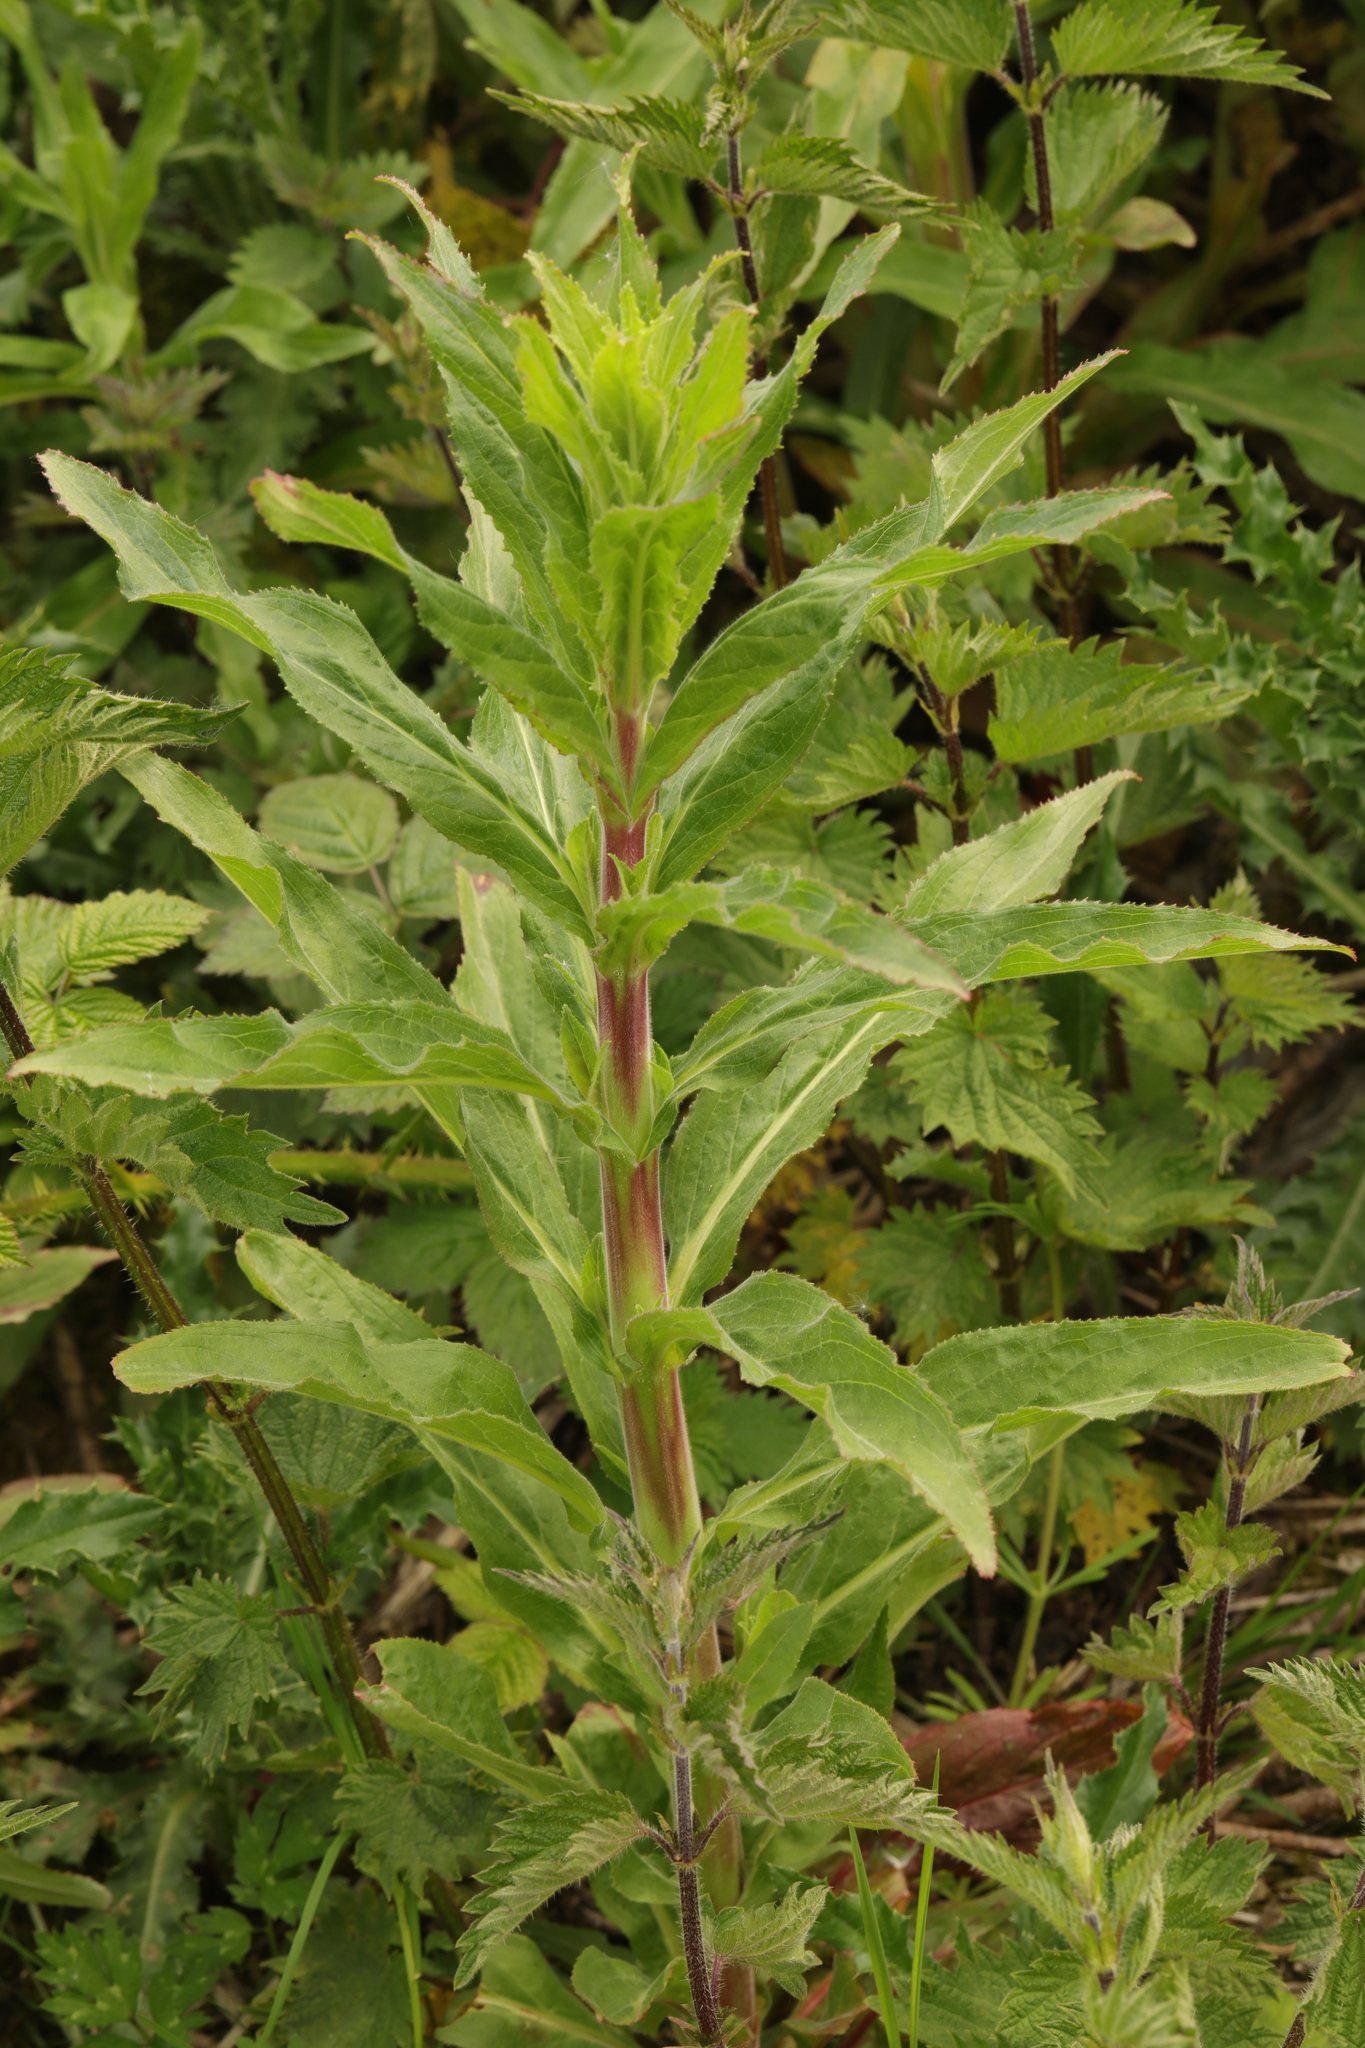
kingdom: Plantae
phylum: Tracheophyta
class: Magnoliopsida
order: Myrtales
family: Onagraceae
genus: Epilobium
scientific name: Epilobium hirsutum
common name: Great willowherb
